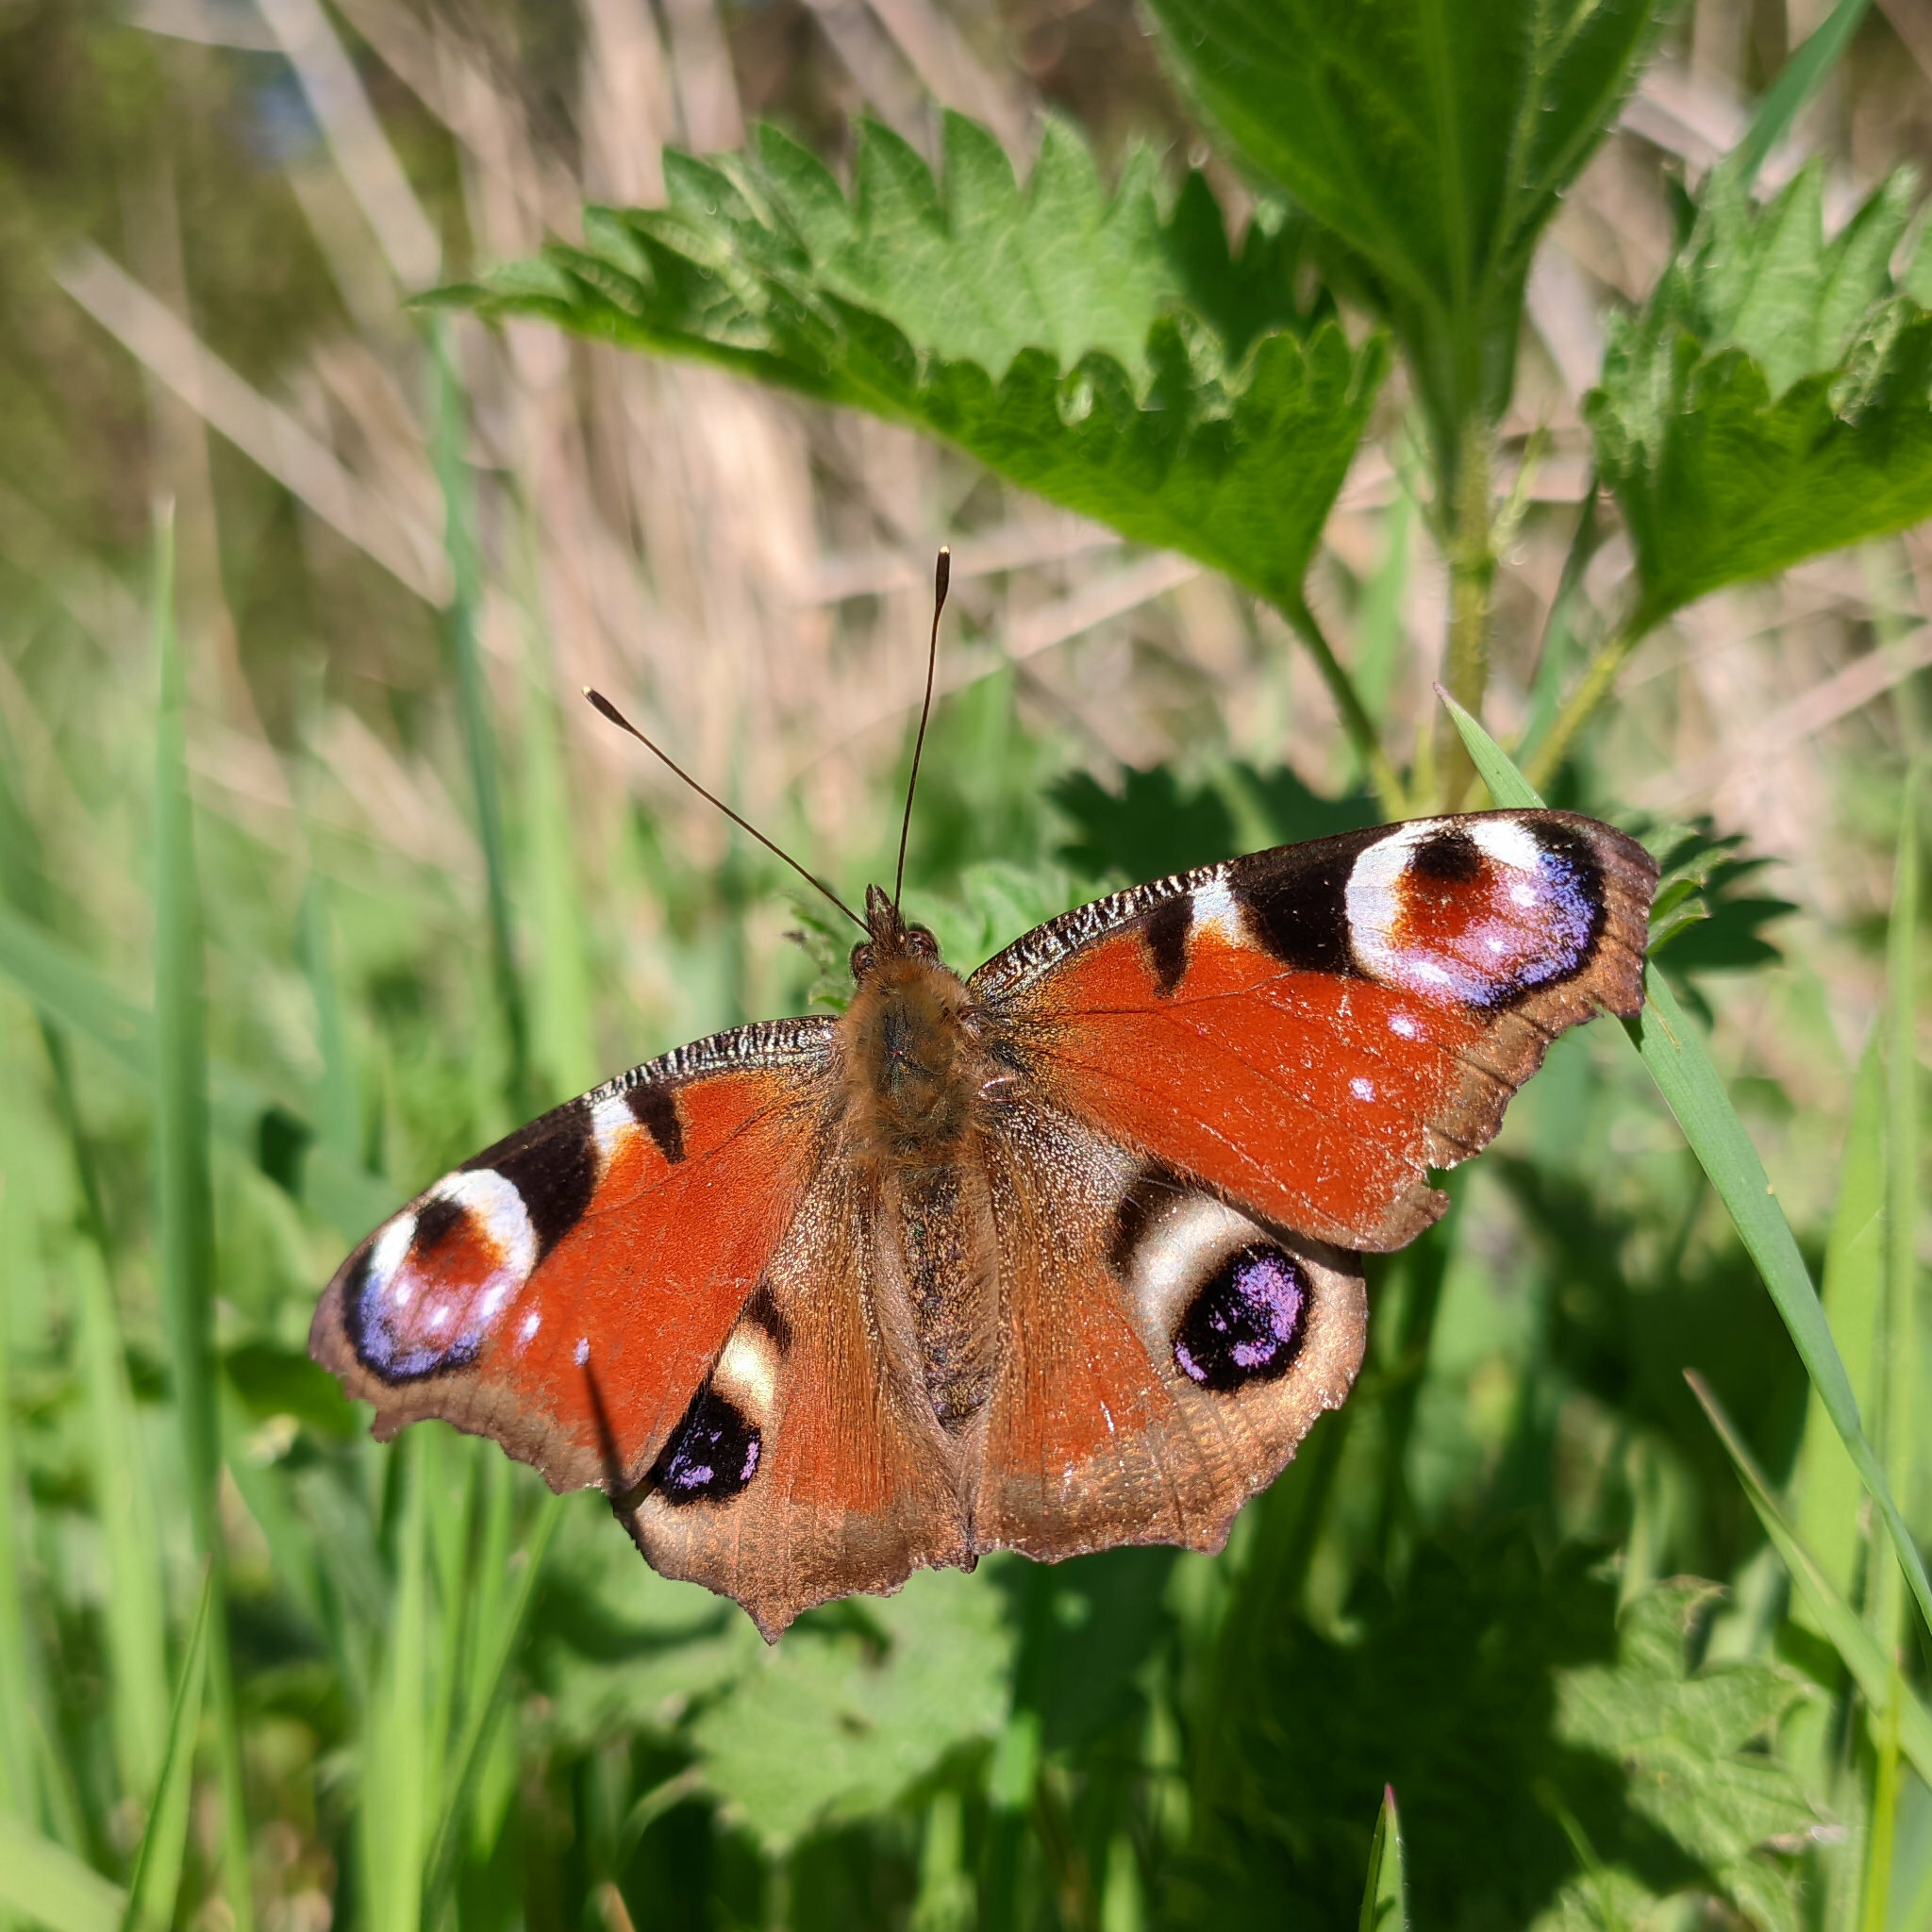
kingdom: Animalia
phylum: Arthropoda
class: Insecta
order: Lepidoptera
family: Nymphalidae
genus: Aglais
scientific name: Aglais io
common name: Peacock
